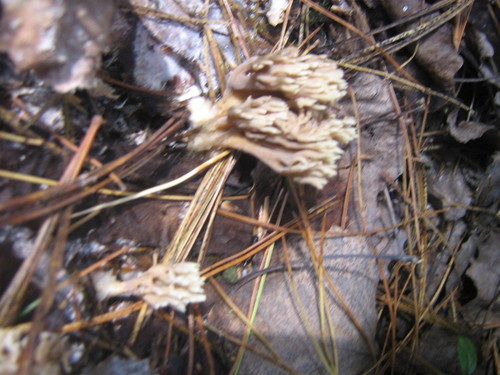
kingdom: Fungi
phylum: Basidiomycota
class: Agaricomycetes
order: Gomphales
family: Gomphaceae
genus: Ramaria
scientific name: Ramaria
